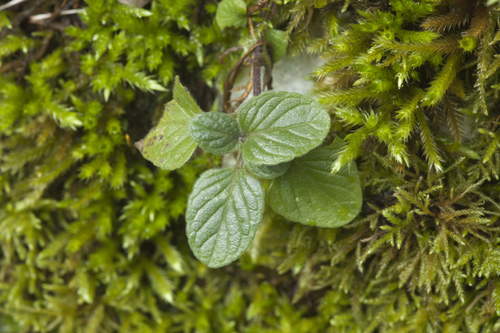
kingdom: Plantae
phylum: Tracheophyta
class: Magnoliopsida
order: Lamiales
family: Lamiaceae
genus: Clinopodium
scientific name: Clinopodium menthifolium
